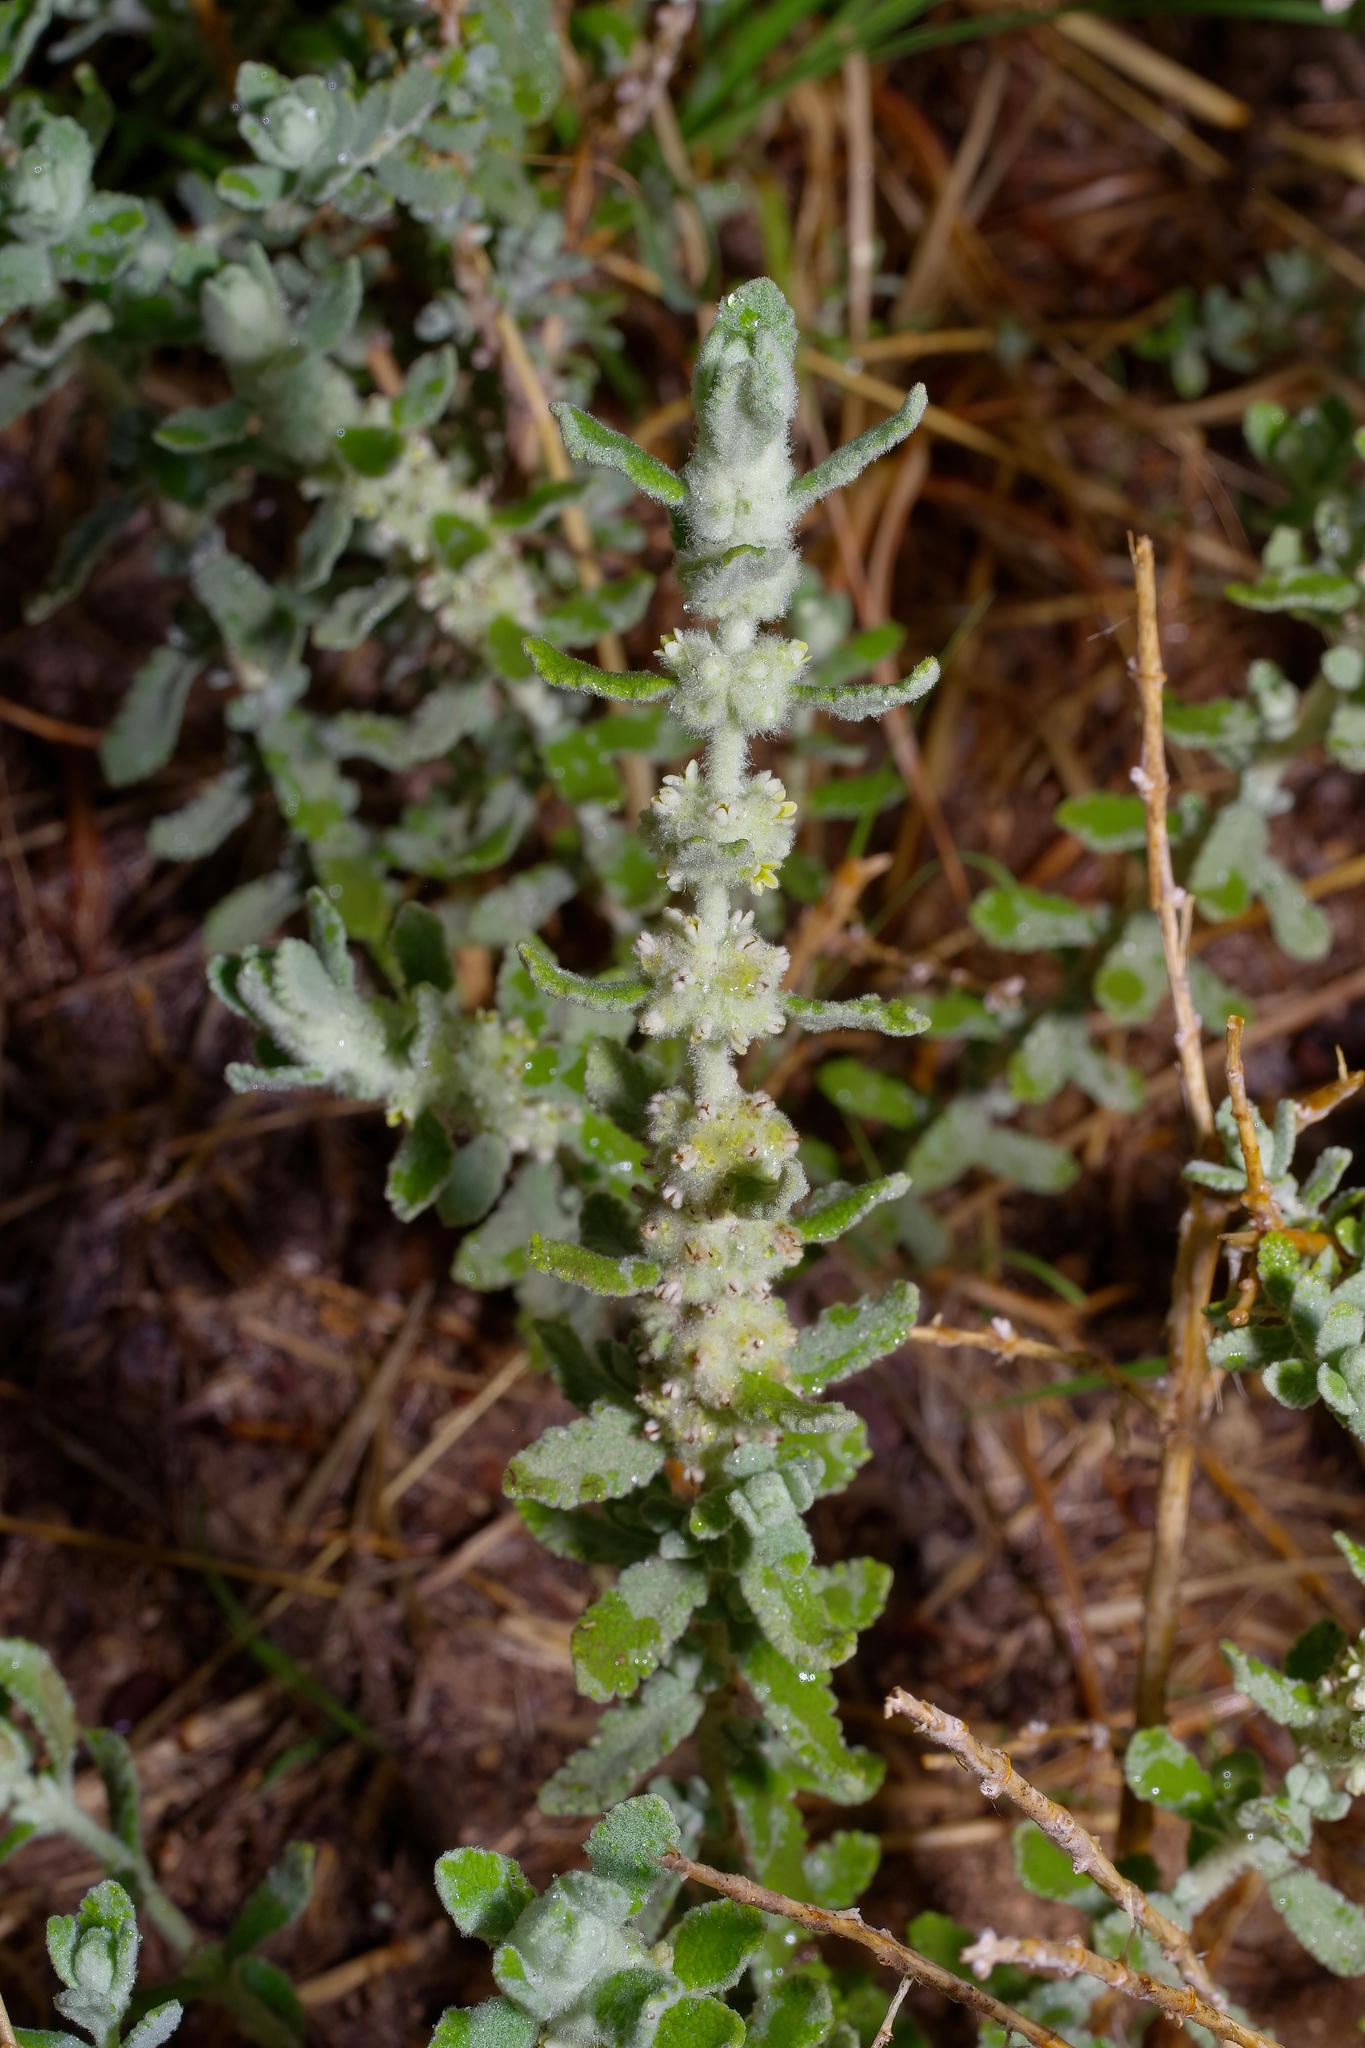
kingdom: Plantae
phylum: Tracheophyta
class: Magnoliopsida
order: Lamiales
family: Scrophulariaceae
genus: Buddleja
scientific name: Buddleja scordioides
